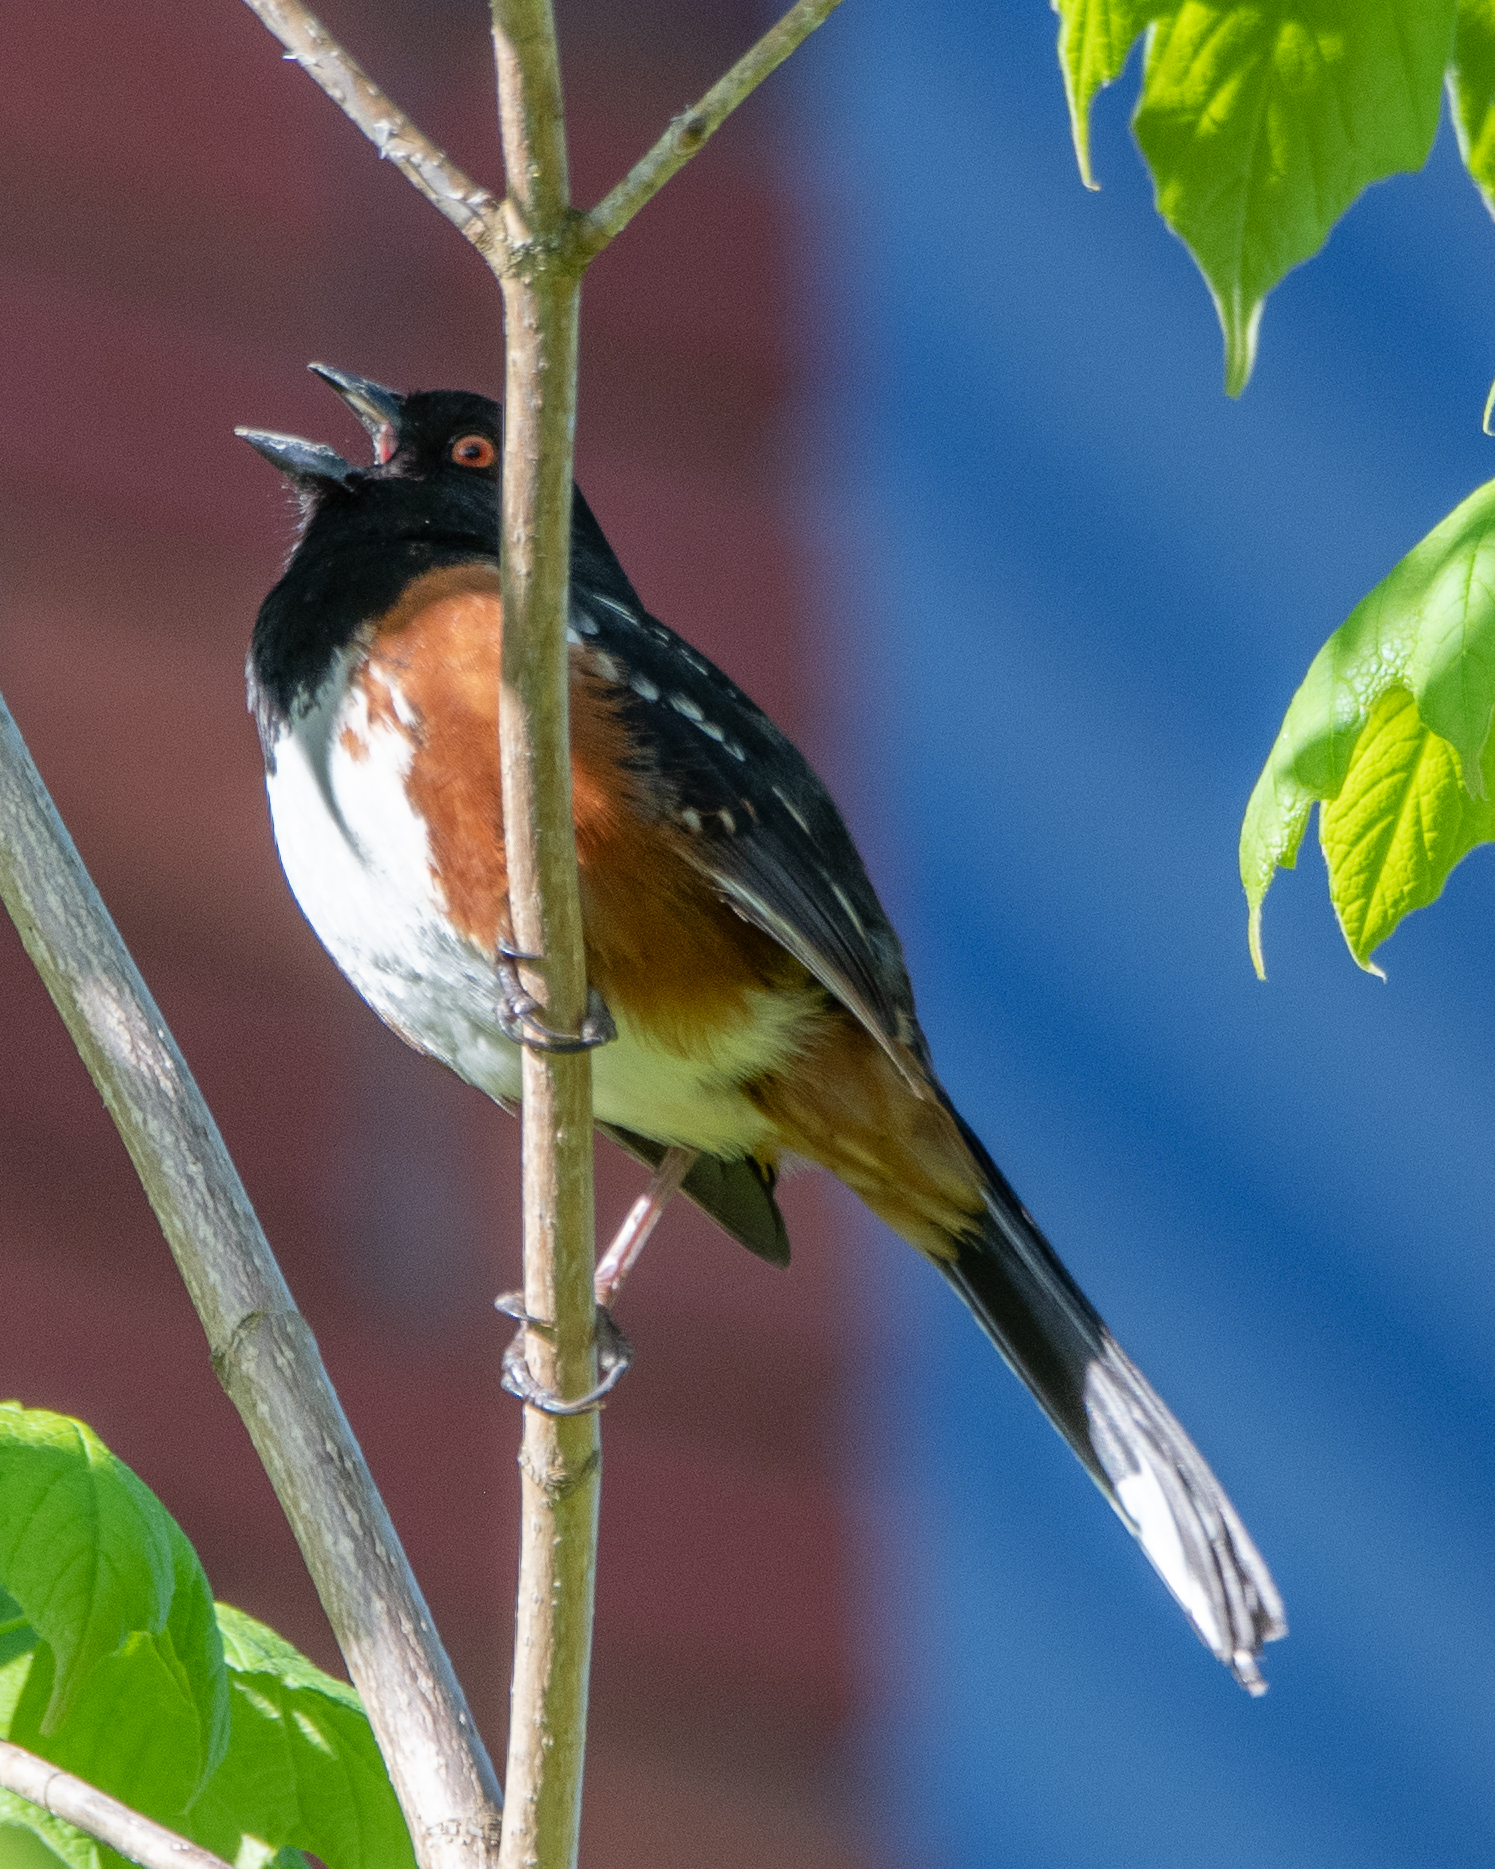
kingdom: Animalia
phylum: Chordata
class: Aves
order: Passeriformes
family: Passerellidae
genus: Pipilo
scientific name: Pipilo maculatus
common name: Spotted towhee
